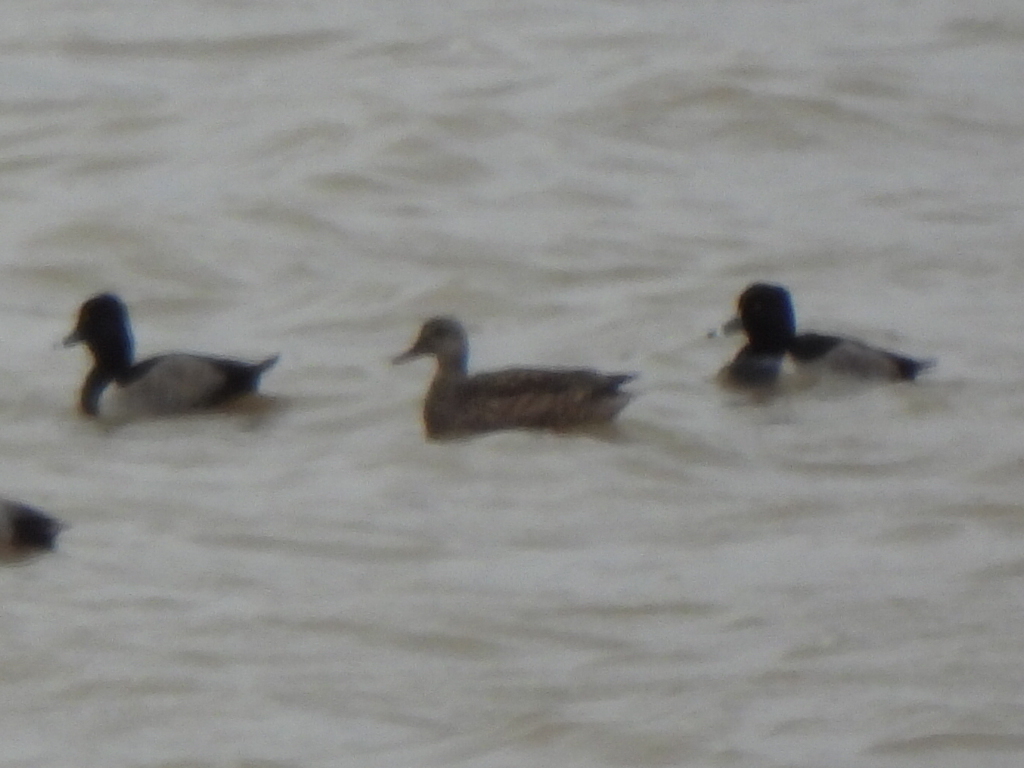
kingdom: Animalia
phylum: Chordata
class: Aves
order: Anseriformes
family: Anatidae
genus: Aythya
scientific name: Aythya collaris
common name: Ring-necked duck
